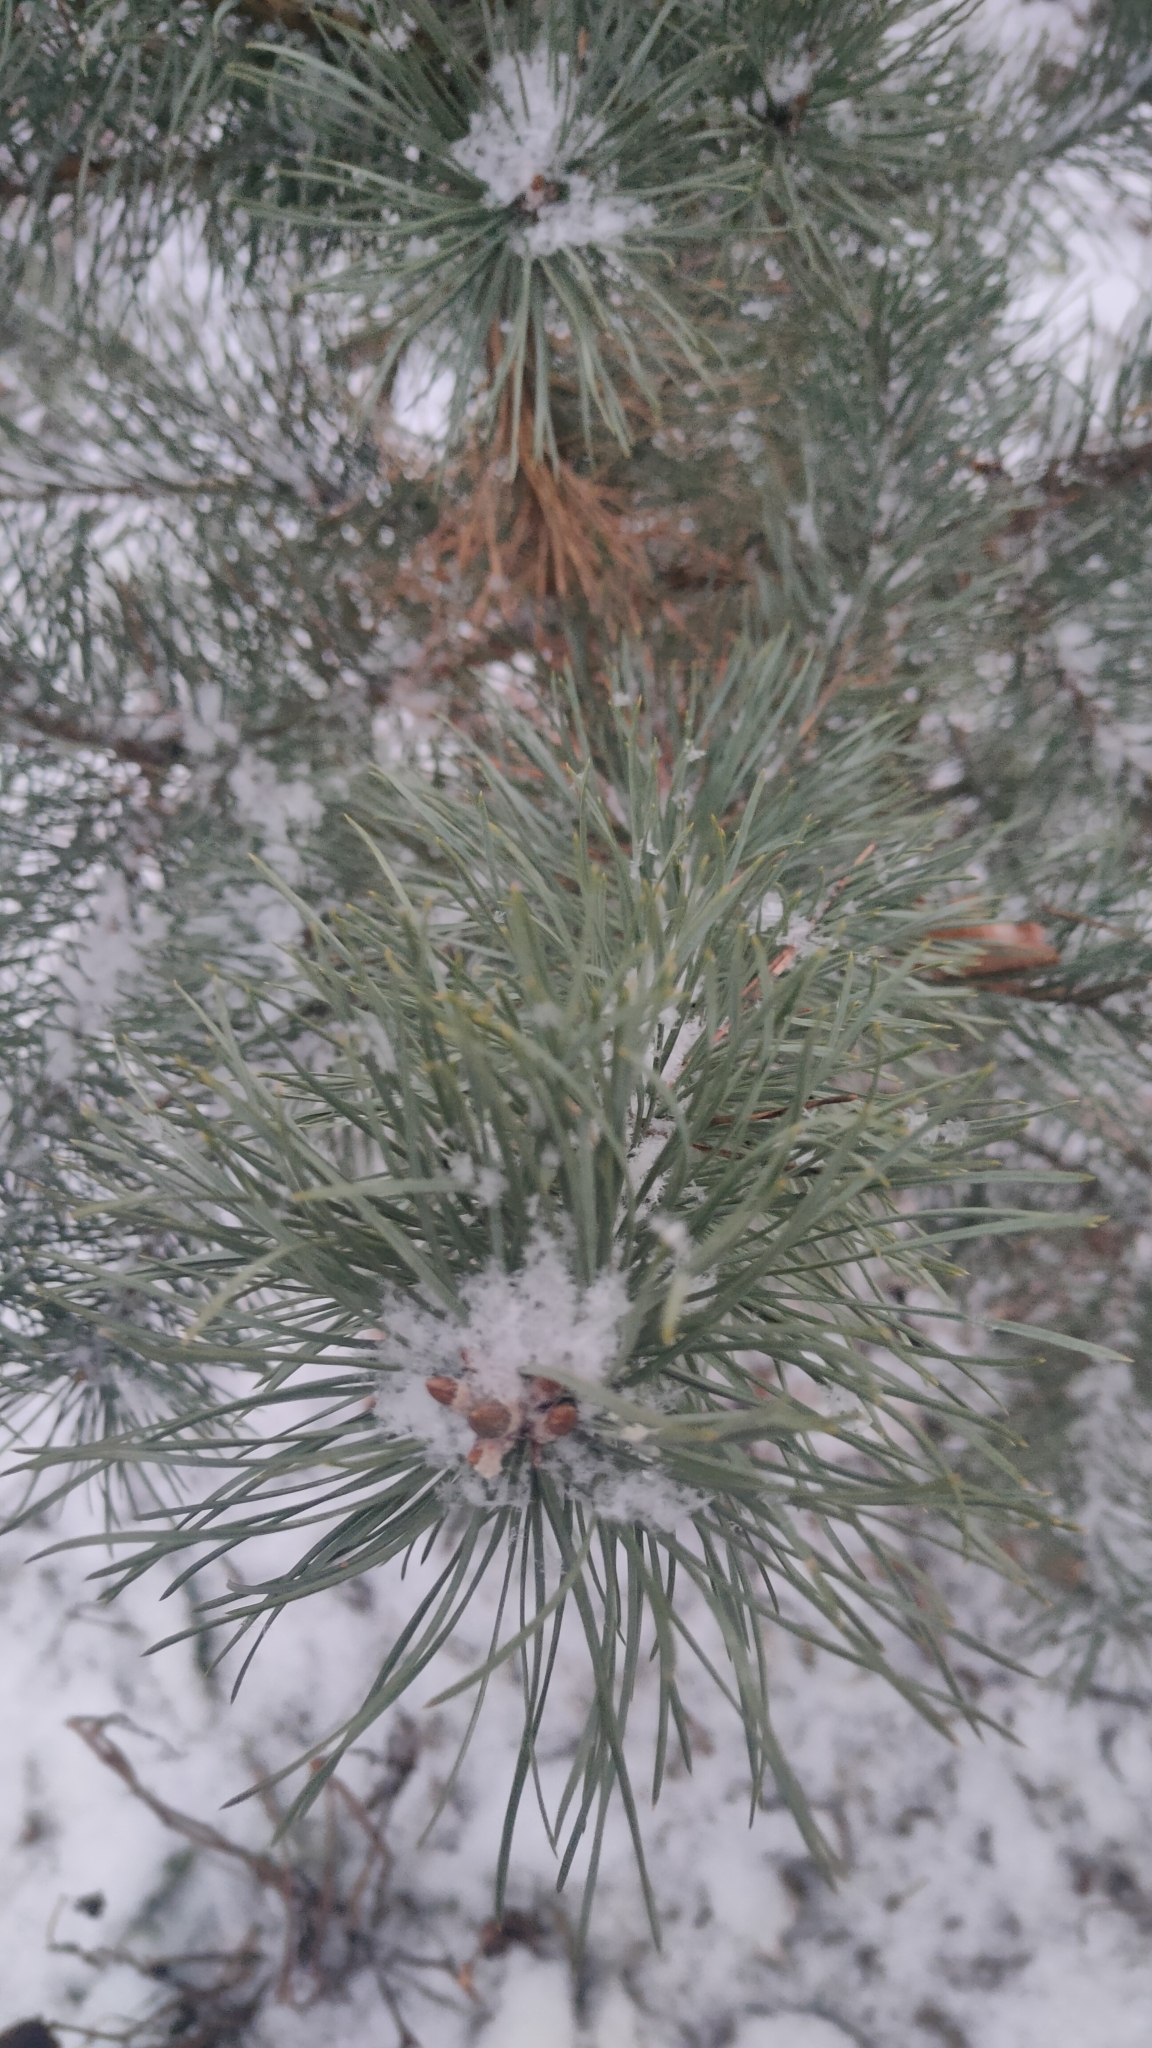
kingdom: Plantae
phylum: Tracheophyta
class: Pinopsida
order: Pinales
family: Pinaceae
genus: Pinus
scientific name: Pinus sylvestris
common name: Scots pine
